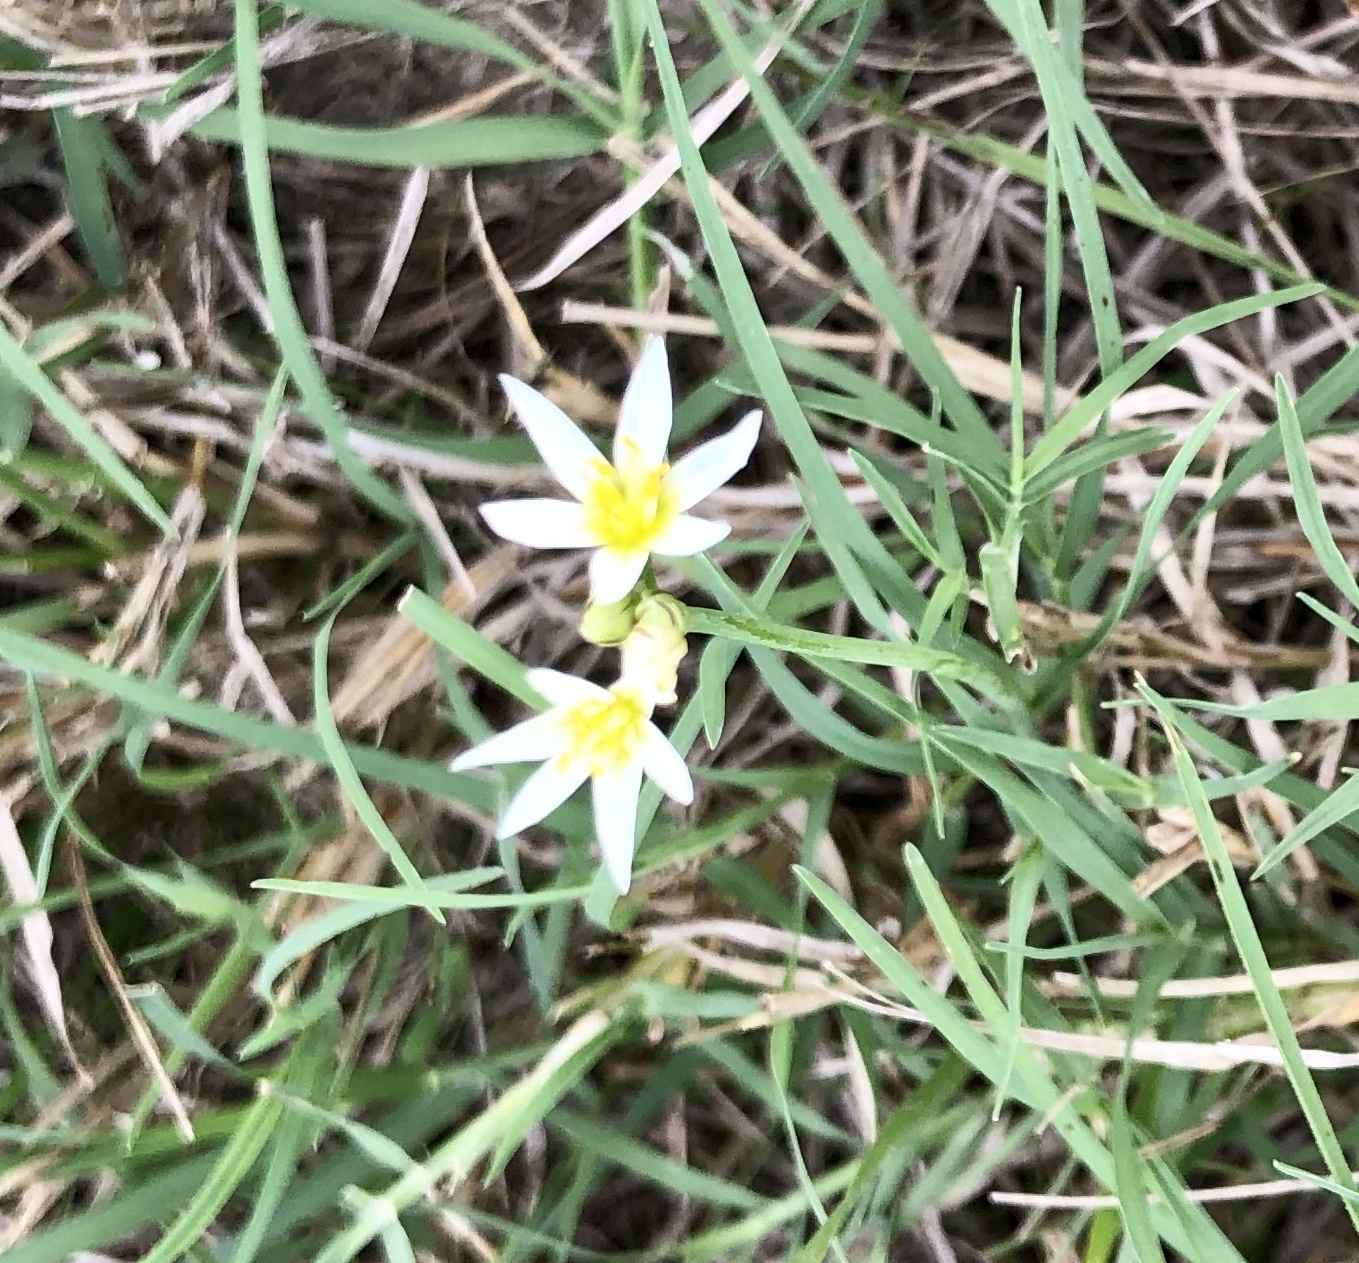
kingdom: Plantae
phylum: Tracheophyta
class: Liliopsida
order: Asparagales
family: Amaryllidaceae
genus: Nothoscordum
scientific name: Nothoscordum bivalve
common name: Crow-poison
